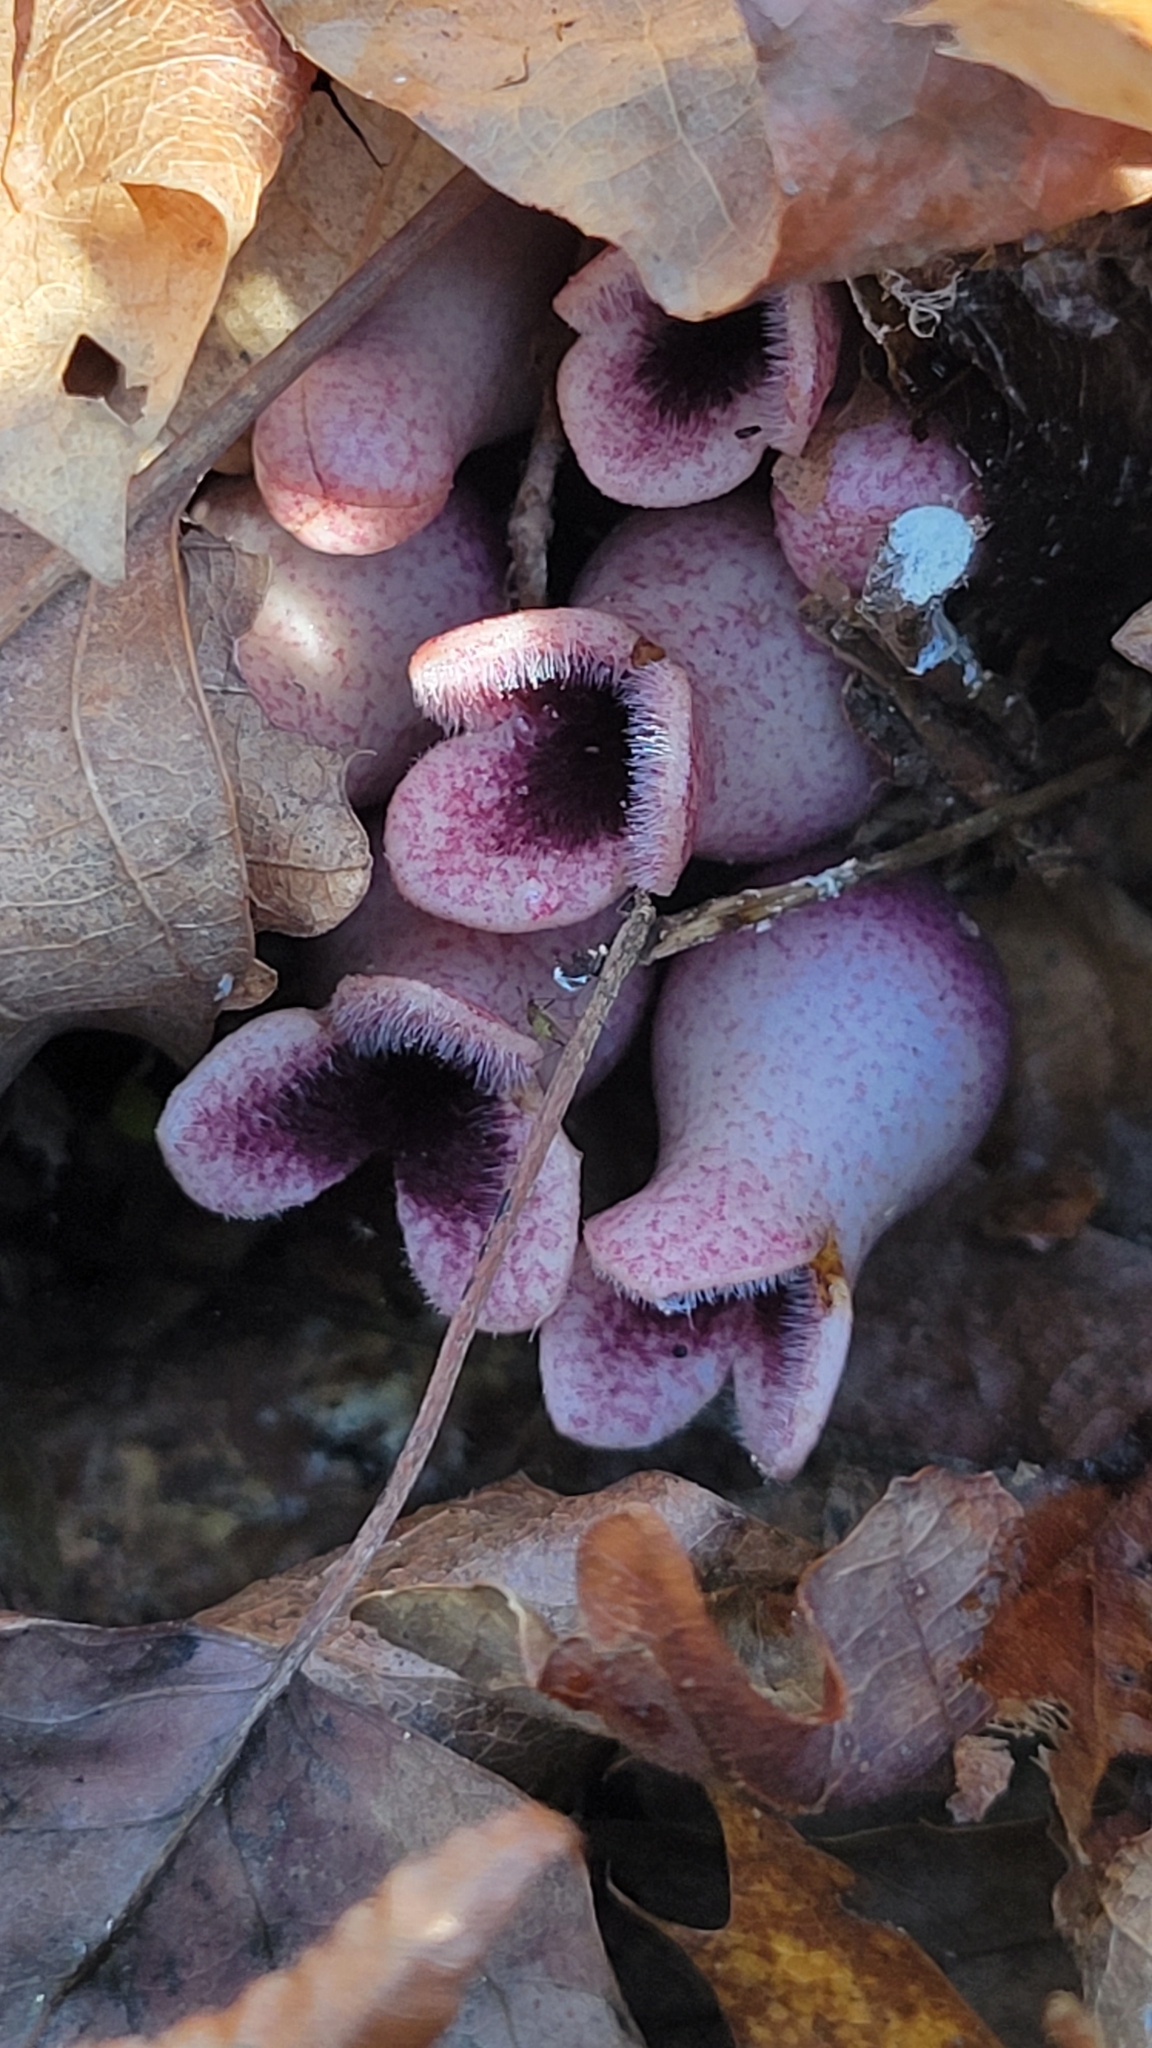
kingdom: Plantae
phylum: Tracheophyta
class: Magnoliopsida
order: Piperales
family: Aristolochiaceae
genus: Hexastylis
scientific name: Hexastylis arifolia
